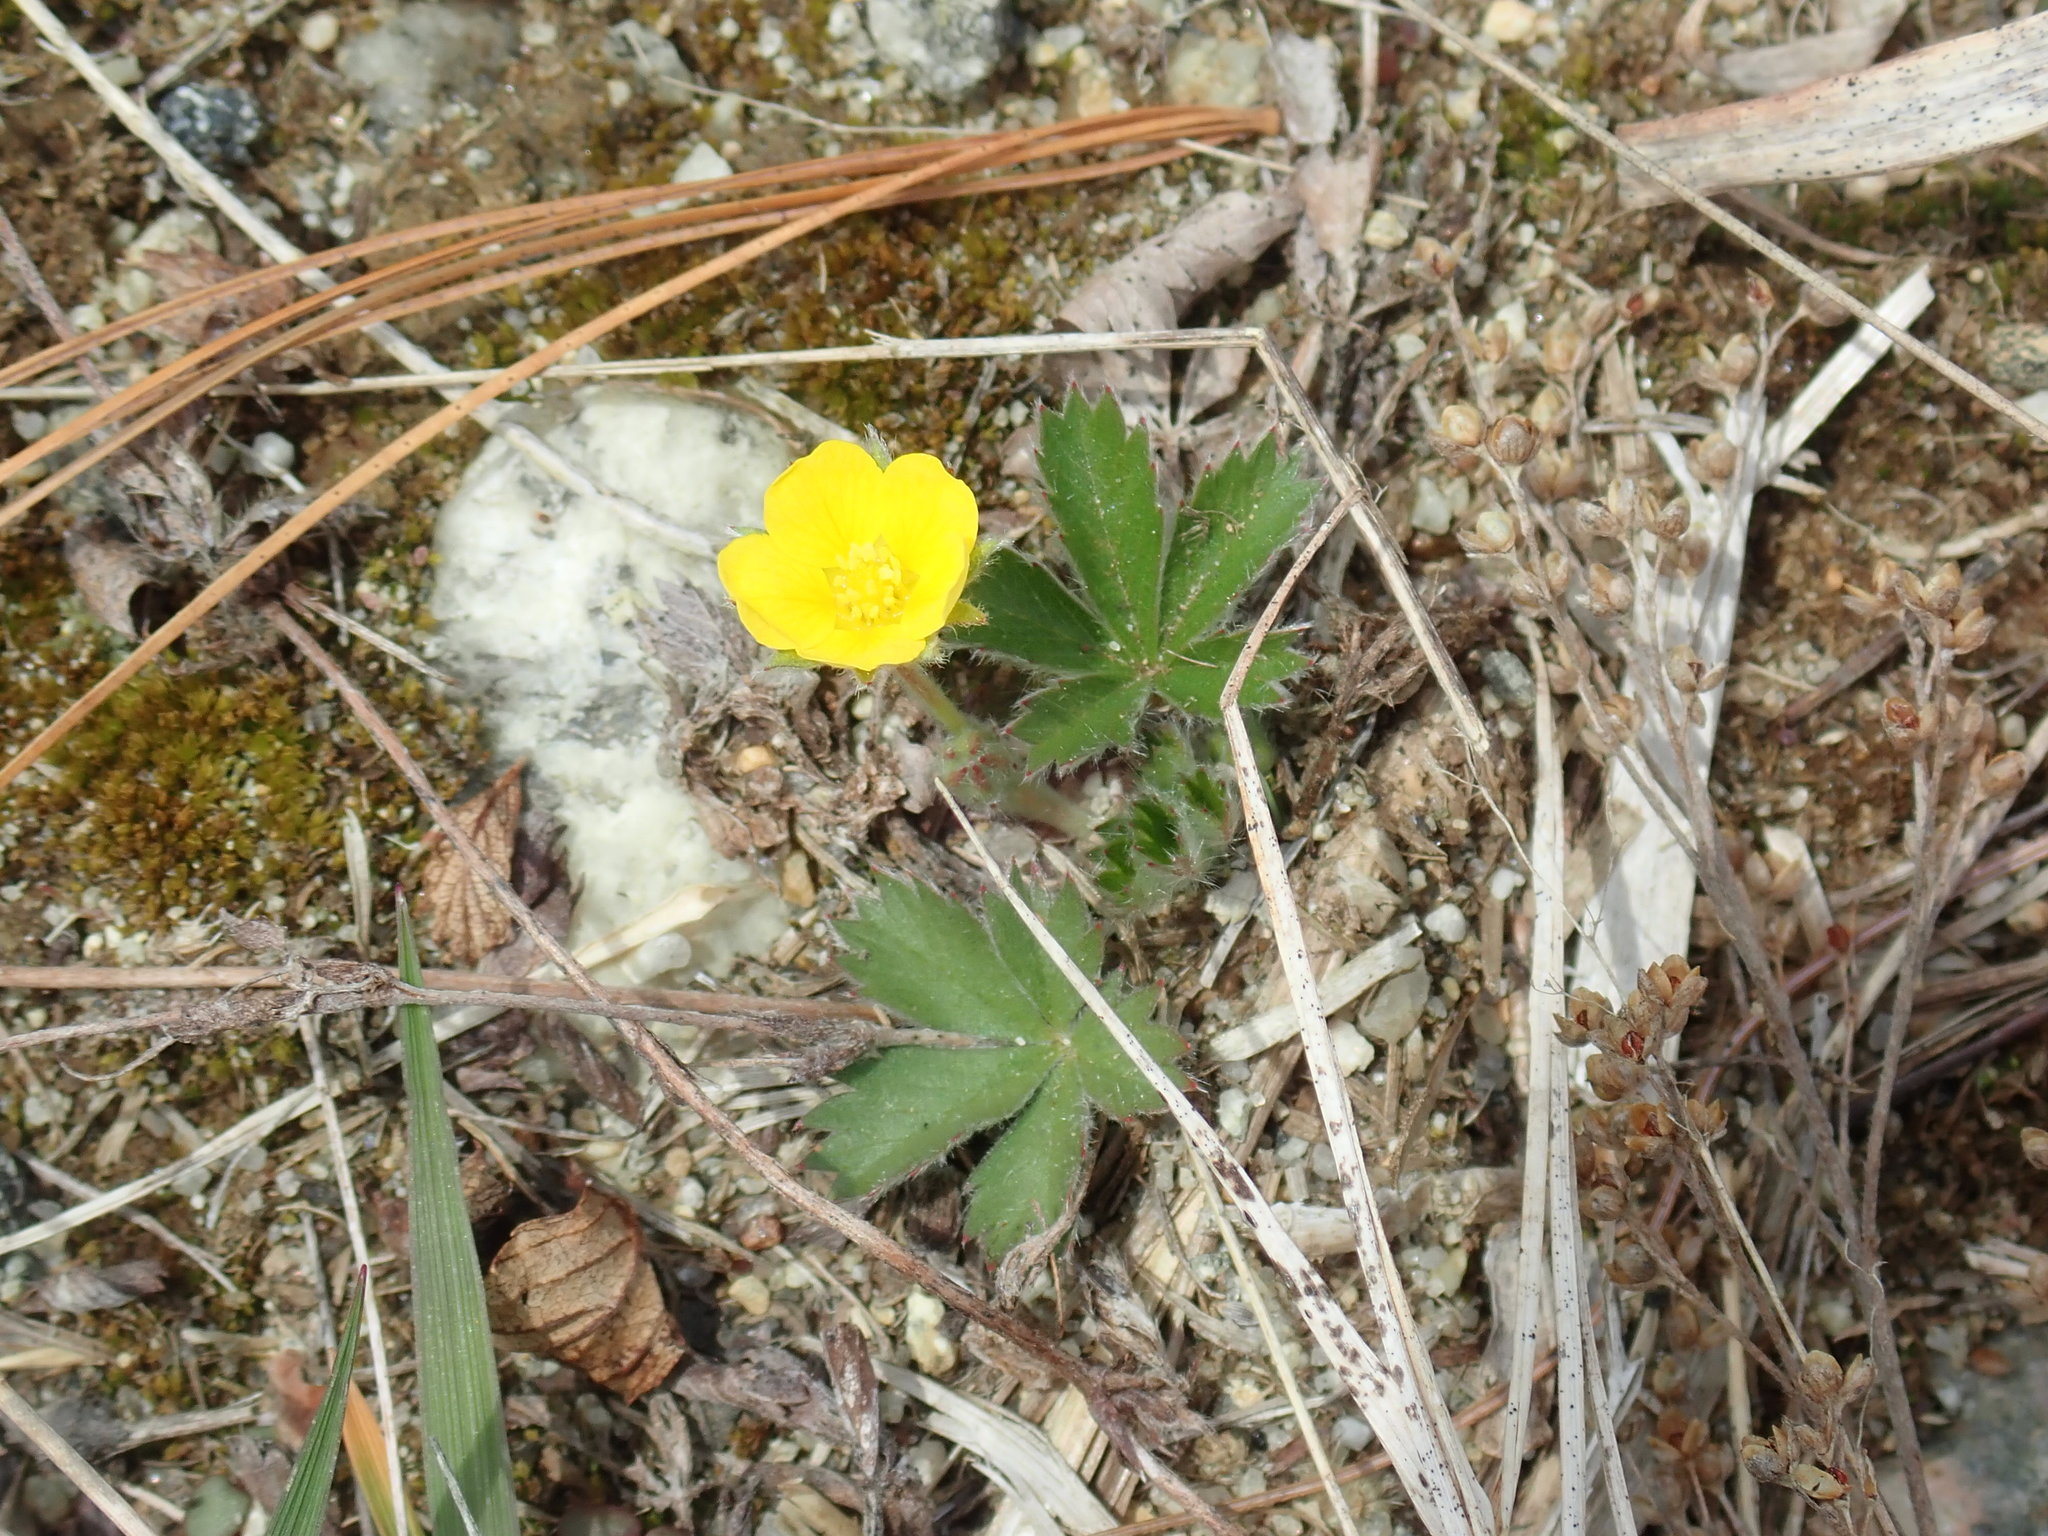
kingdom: Plantae
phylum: Tracheophyta
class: Magnoliopsida
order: Rosales
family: Rosaceae
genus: Potentilla
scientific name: Potentilla canadensis
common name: Canada cinquefoil
